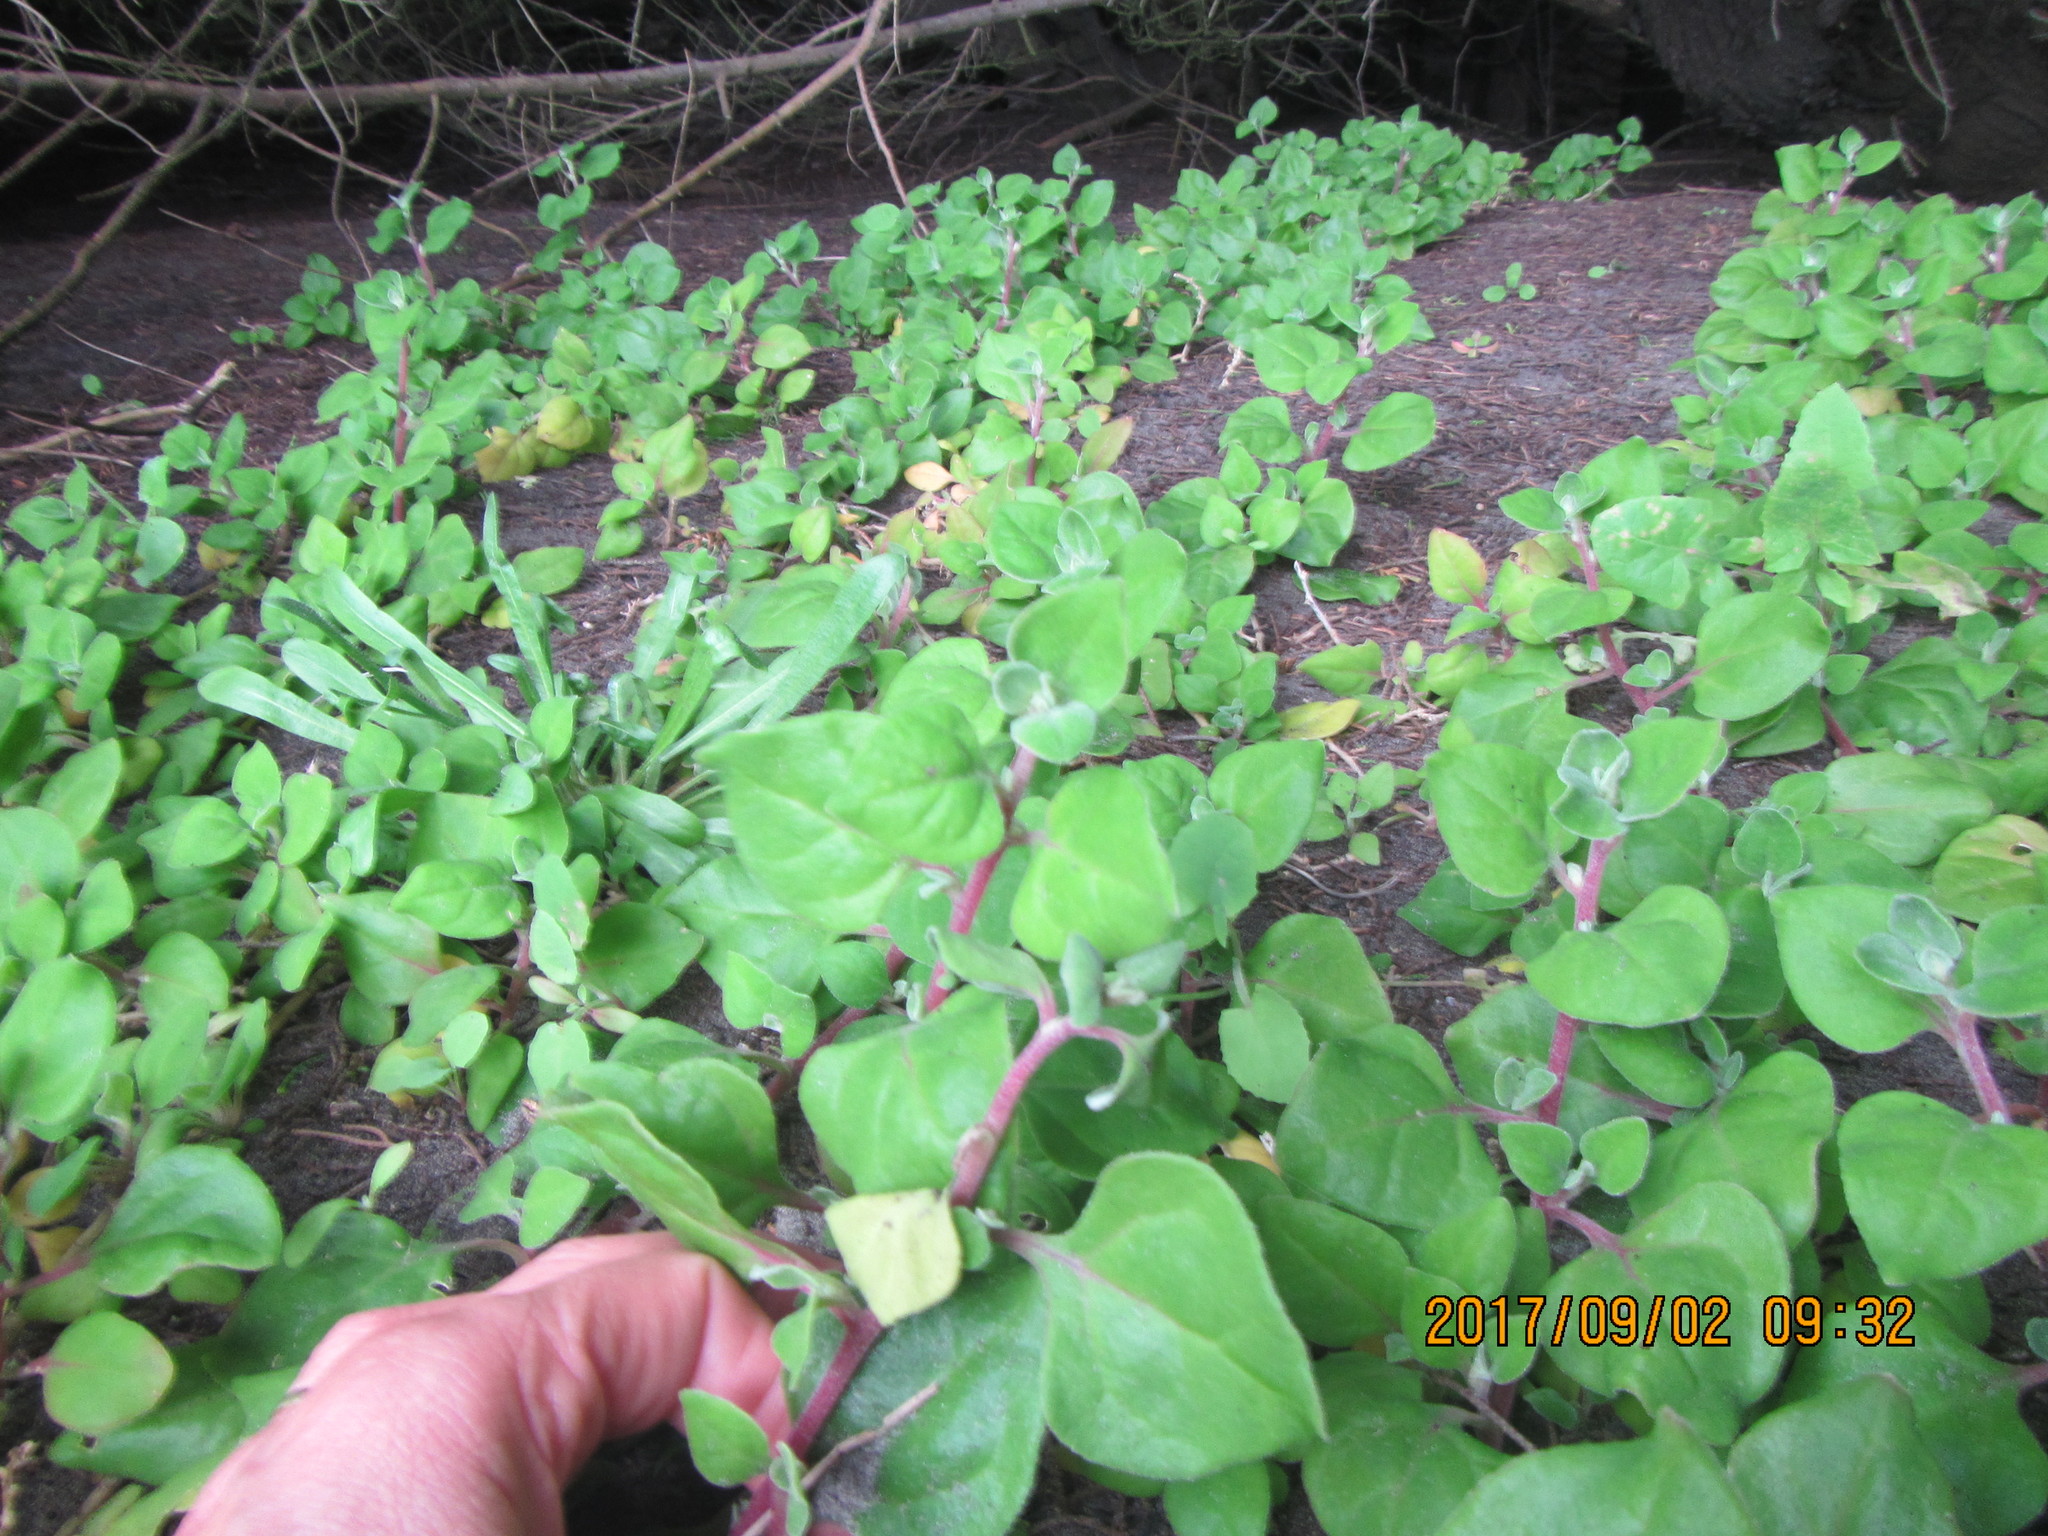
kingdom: Plantae
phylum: Tracheophyta
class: Magnoliopsida
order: Caryophyllales
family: Aizoaceae
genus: Tetragonia
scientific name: Tetragonia implexicoma
